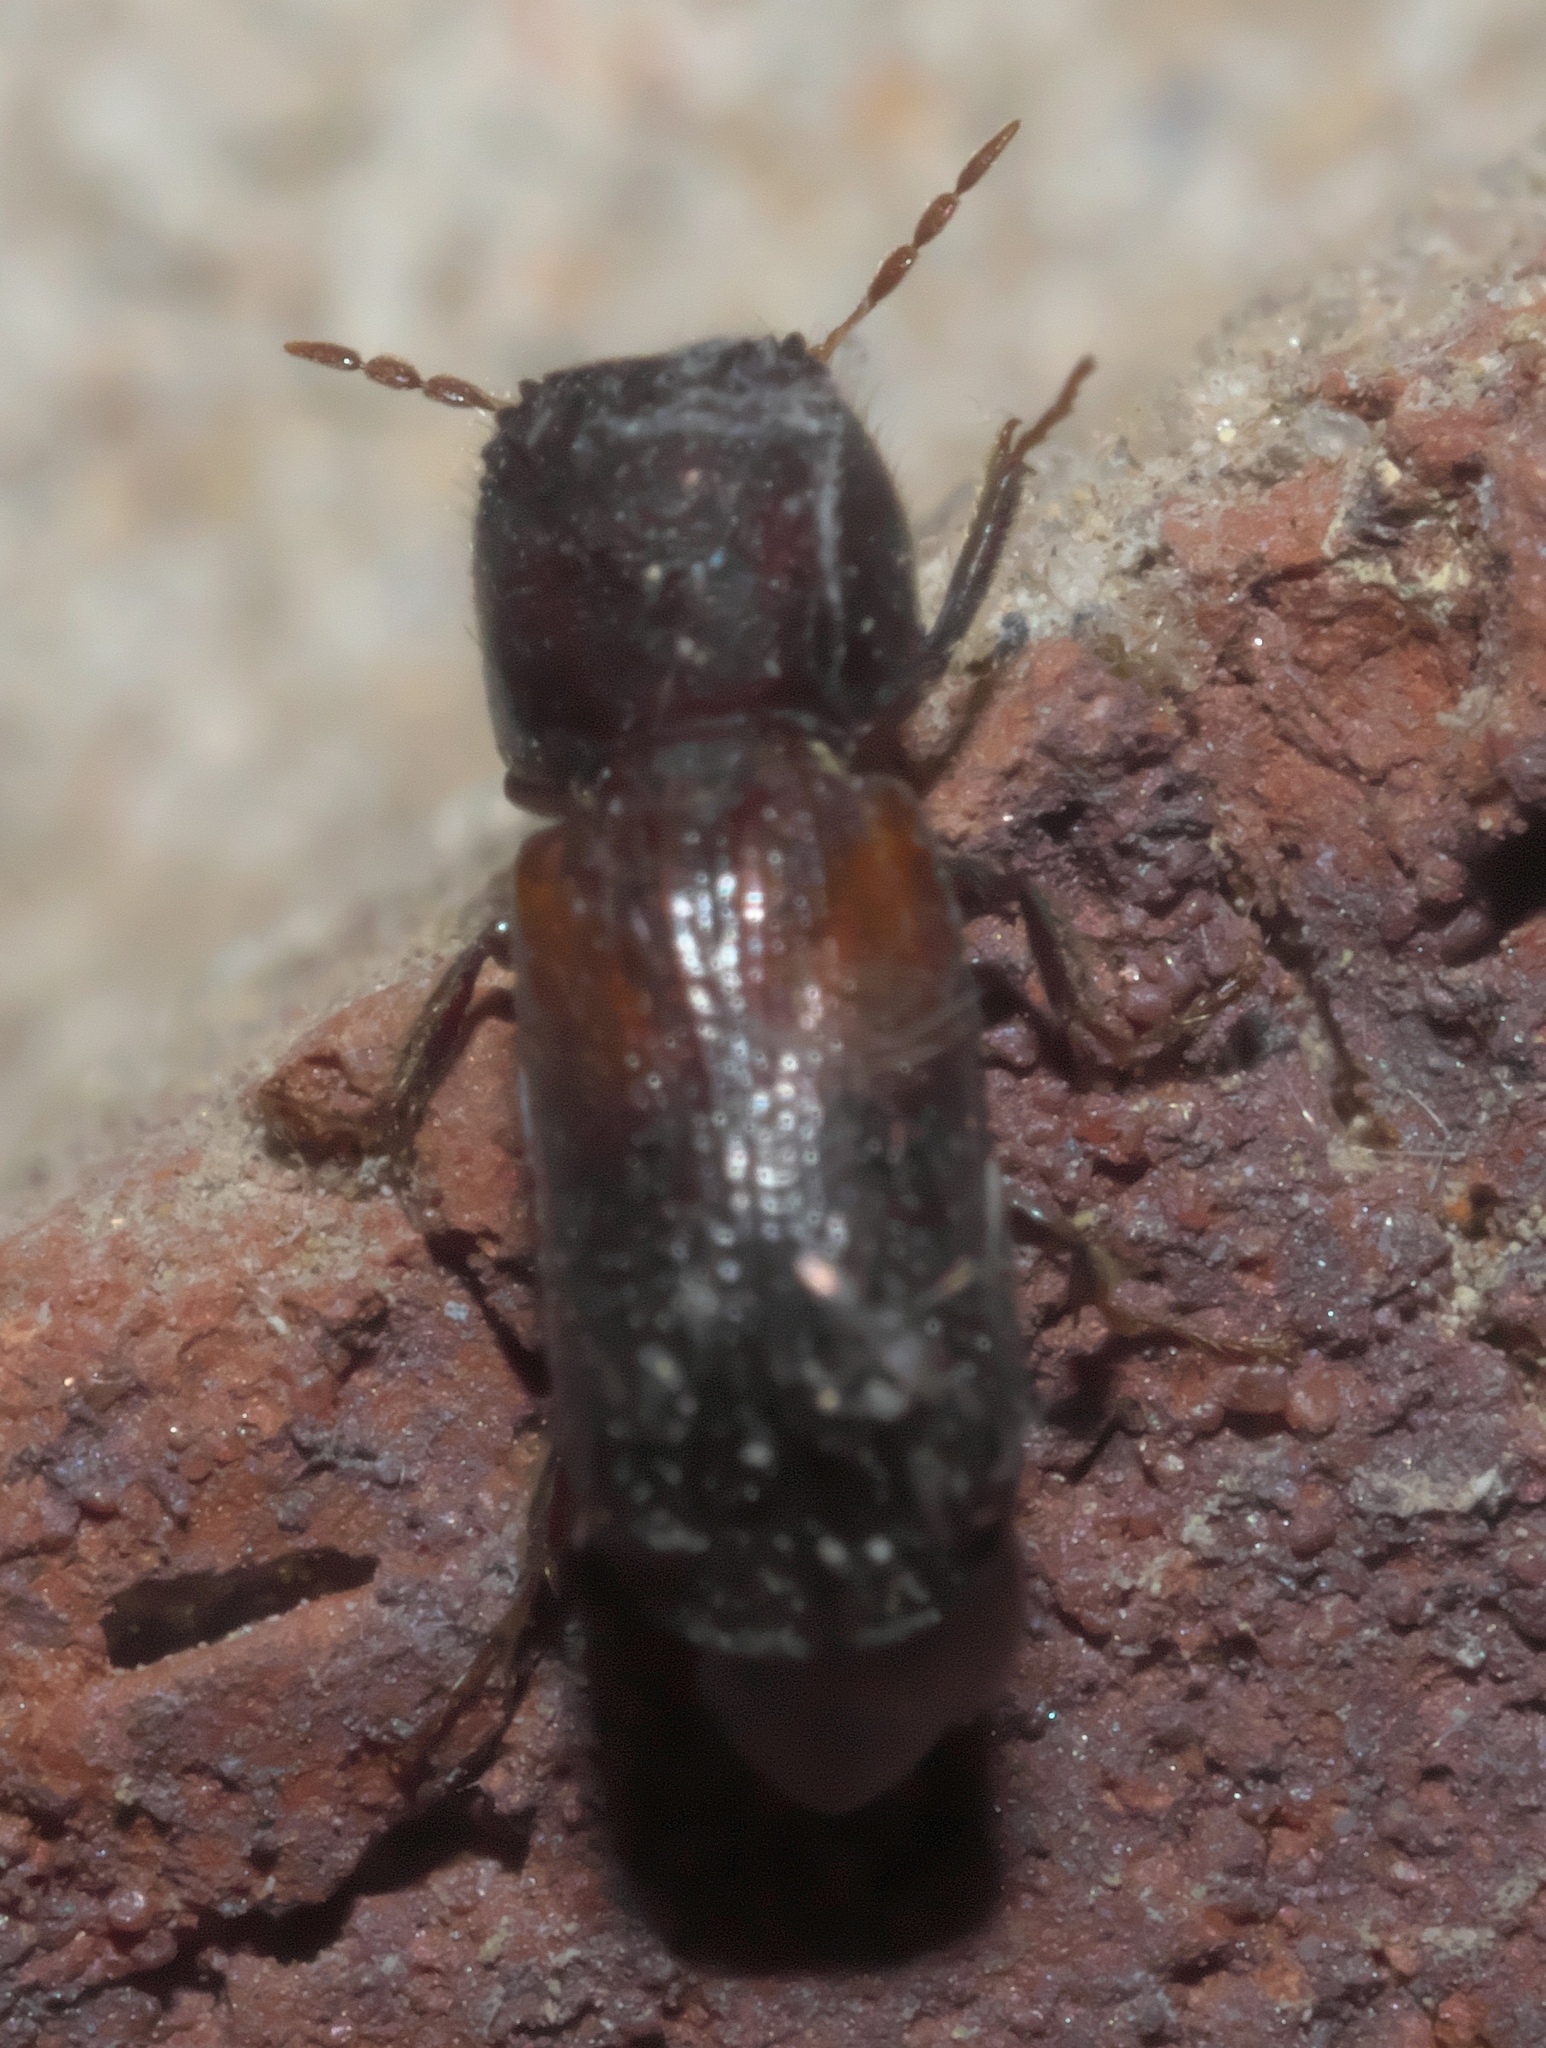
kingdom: Animalia
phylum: Arthropoda
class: Insecta
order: Coleoptera
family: Bostrichidae
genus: Xylobiops
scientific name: Xylobiops basilaris
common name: Red-shouldered bostrichid
